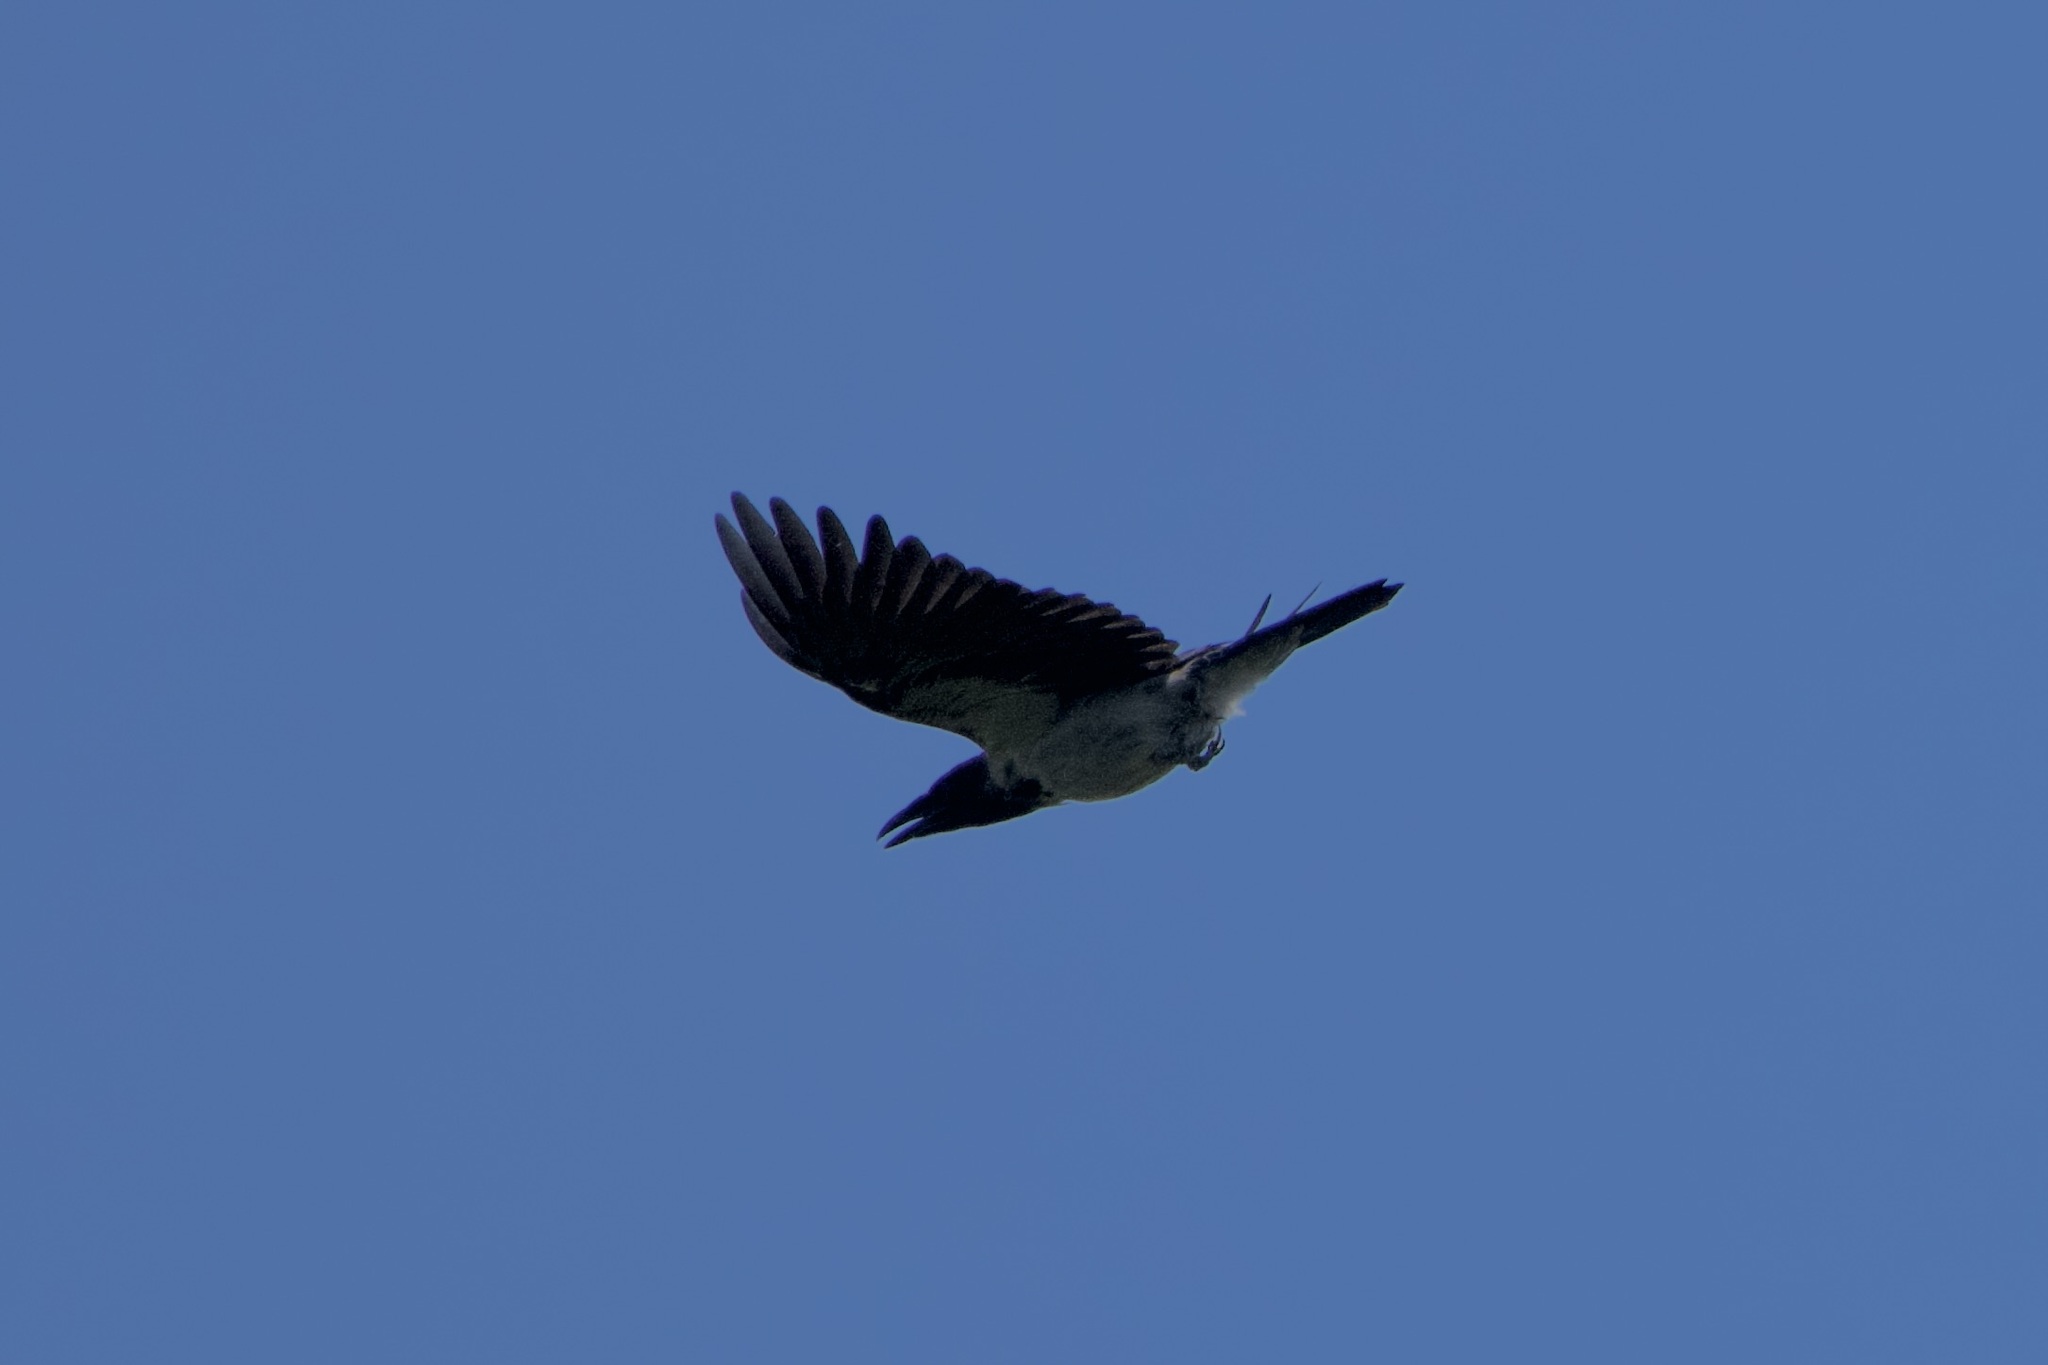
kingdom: Animalia
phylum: Chordata
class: Aves
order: Passeriformes
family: Corvidae
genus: Corvus
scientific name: Corvus cornix
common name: Hooded crow
